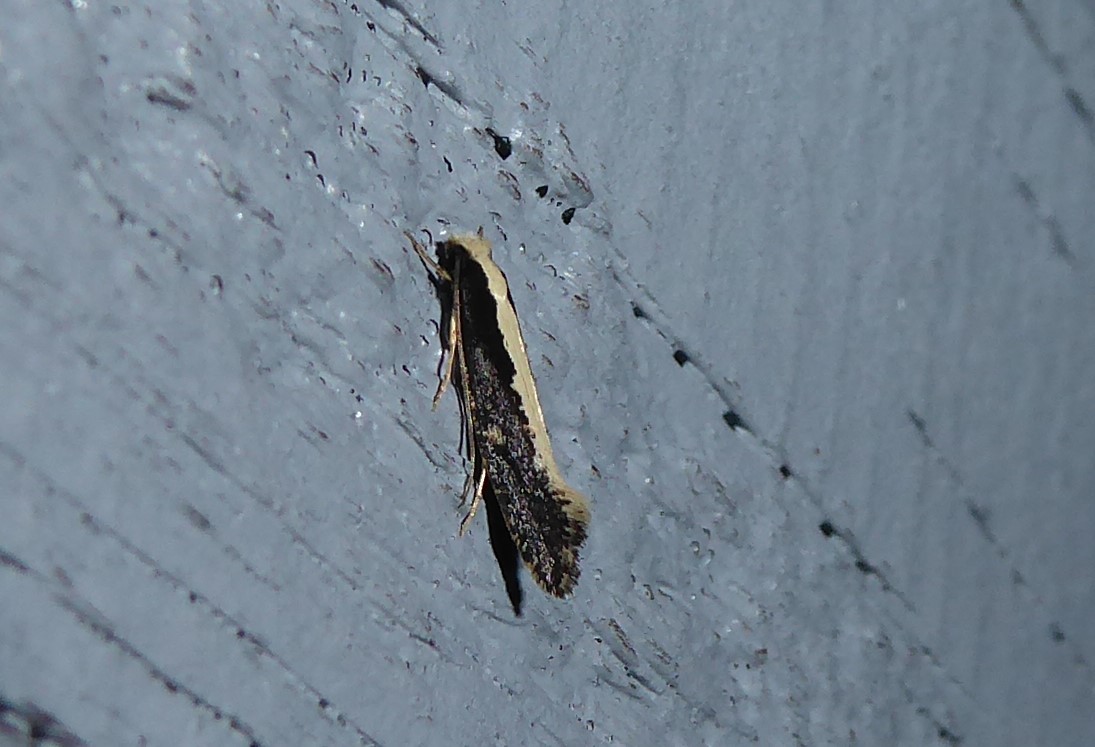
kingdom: Animalia
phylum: Arthropoda
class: Insecta
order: Lepidoptera
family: Tineidae
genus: Monopis
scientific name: Monopis ethelella
